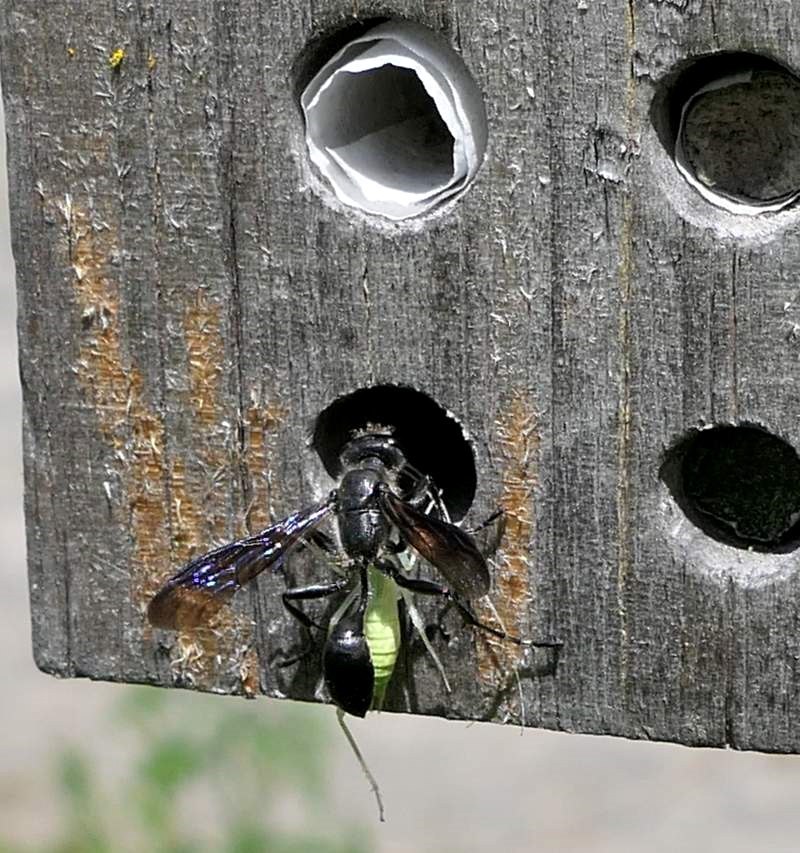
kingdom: Animalia
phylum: Arthropoda
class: Insecta
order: Hymenoptera
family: Sphecidae
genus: Isodontia
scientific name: Isodontia mexicana
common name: Mud dauber
